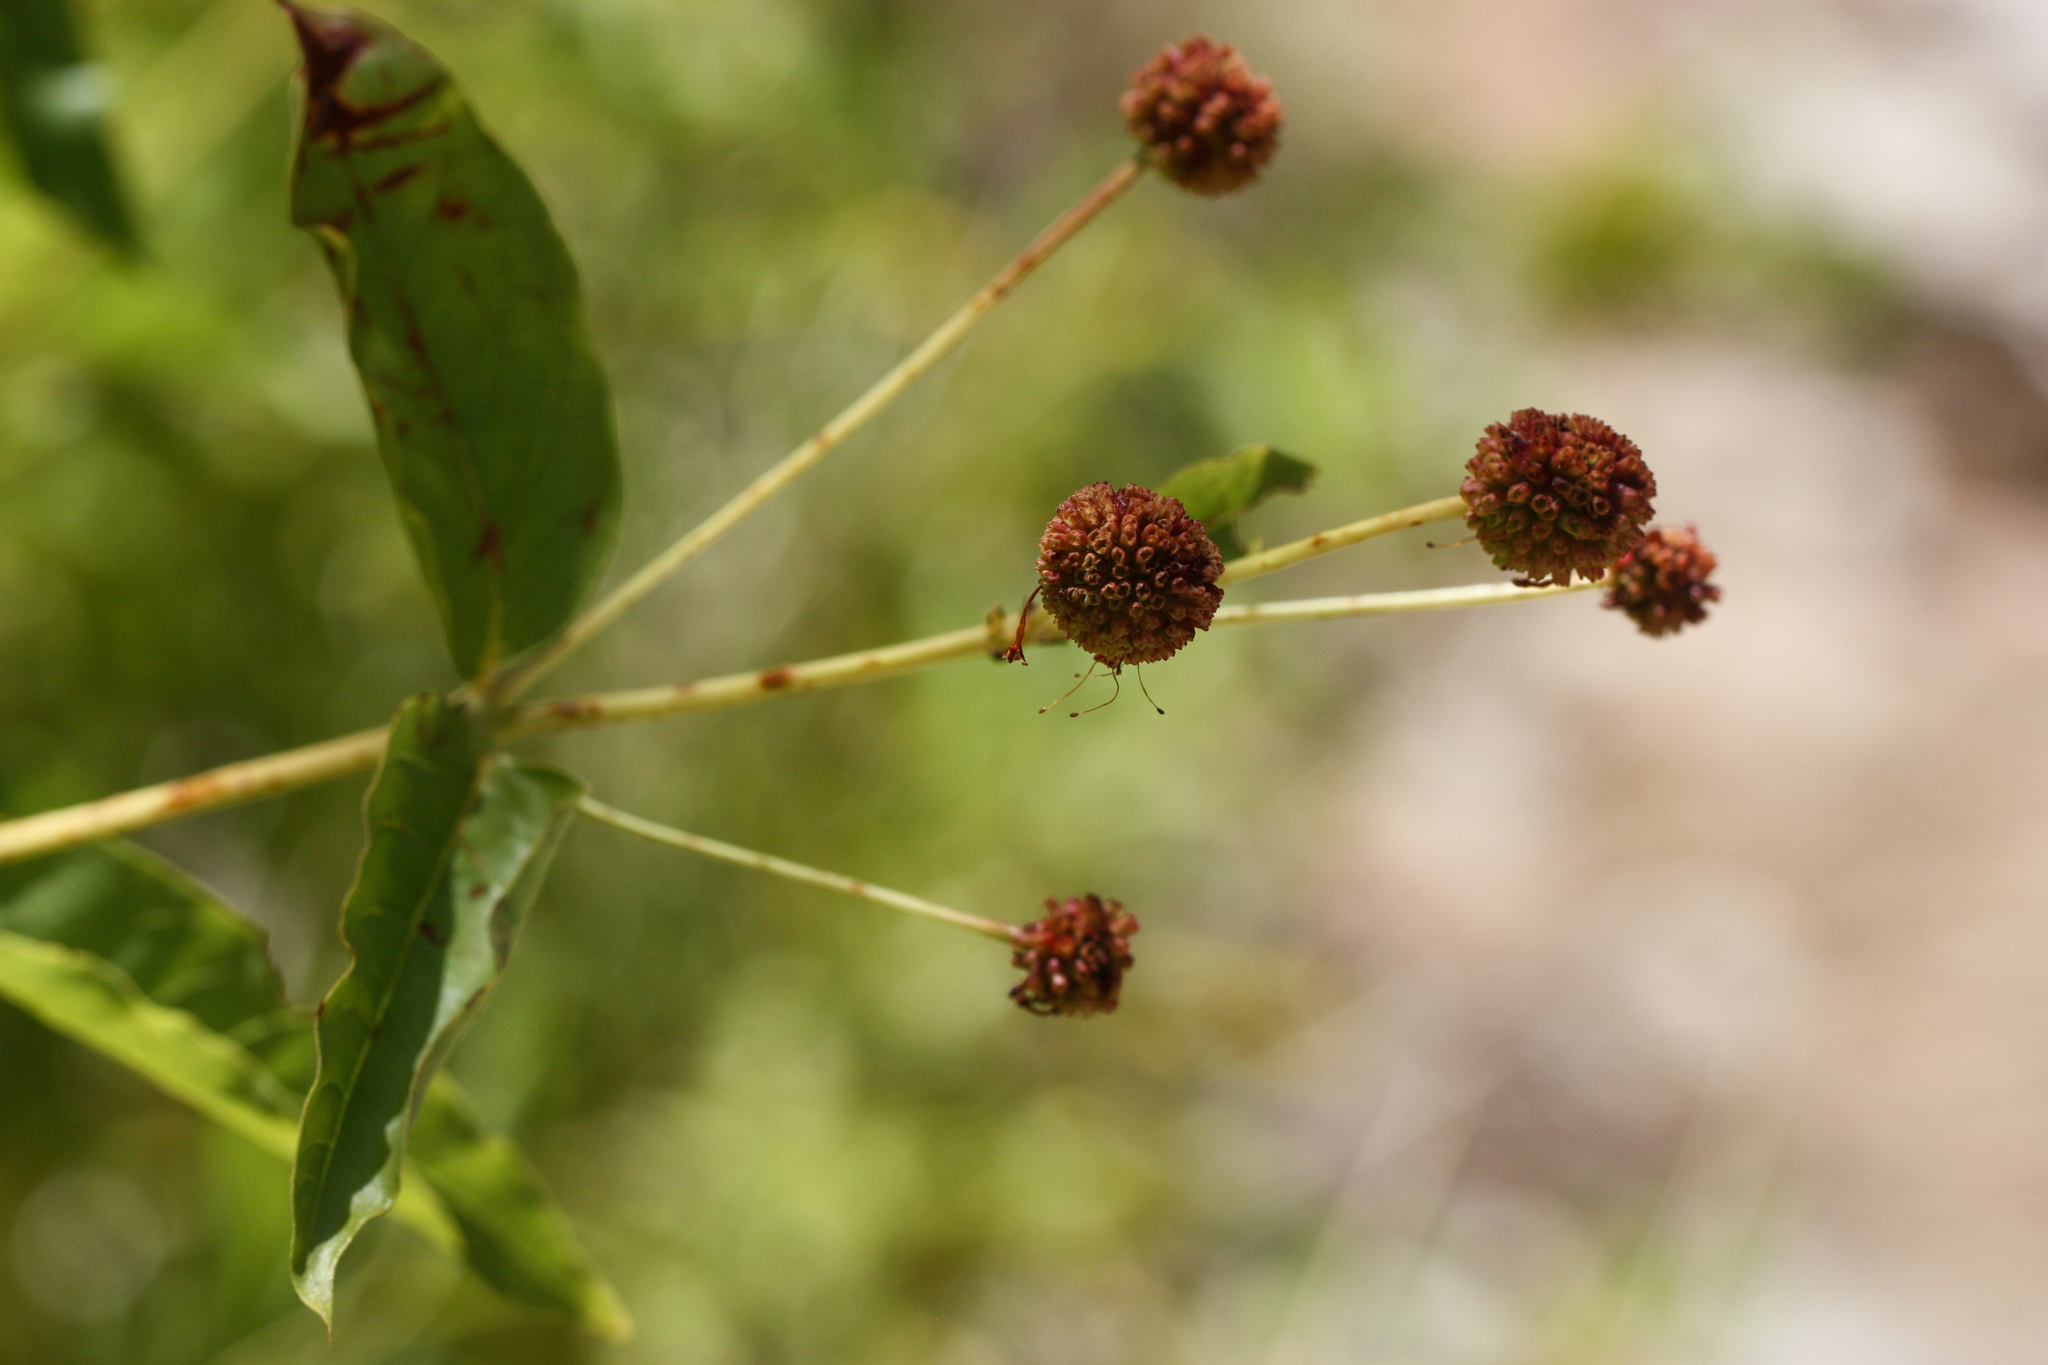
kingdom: Plantae
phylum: Tracheophyta
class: Magnoliopsida
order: Gentianales
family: Rubiaceae
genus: Cephalanthus
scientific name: Cephalanthus occidentalis
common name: Button-willow
